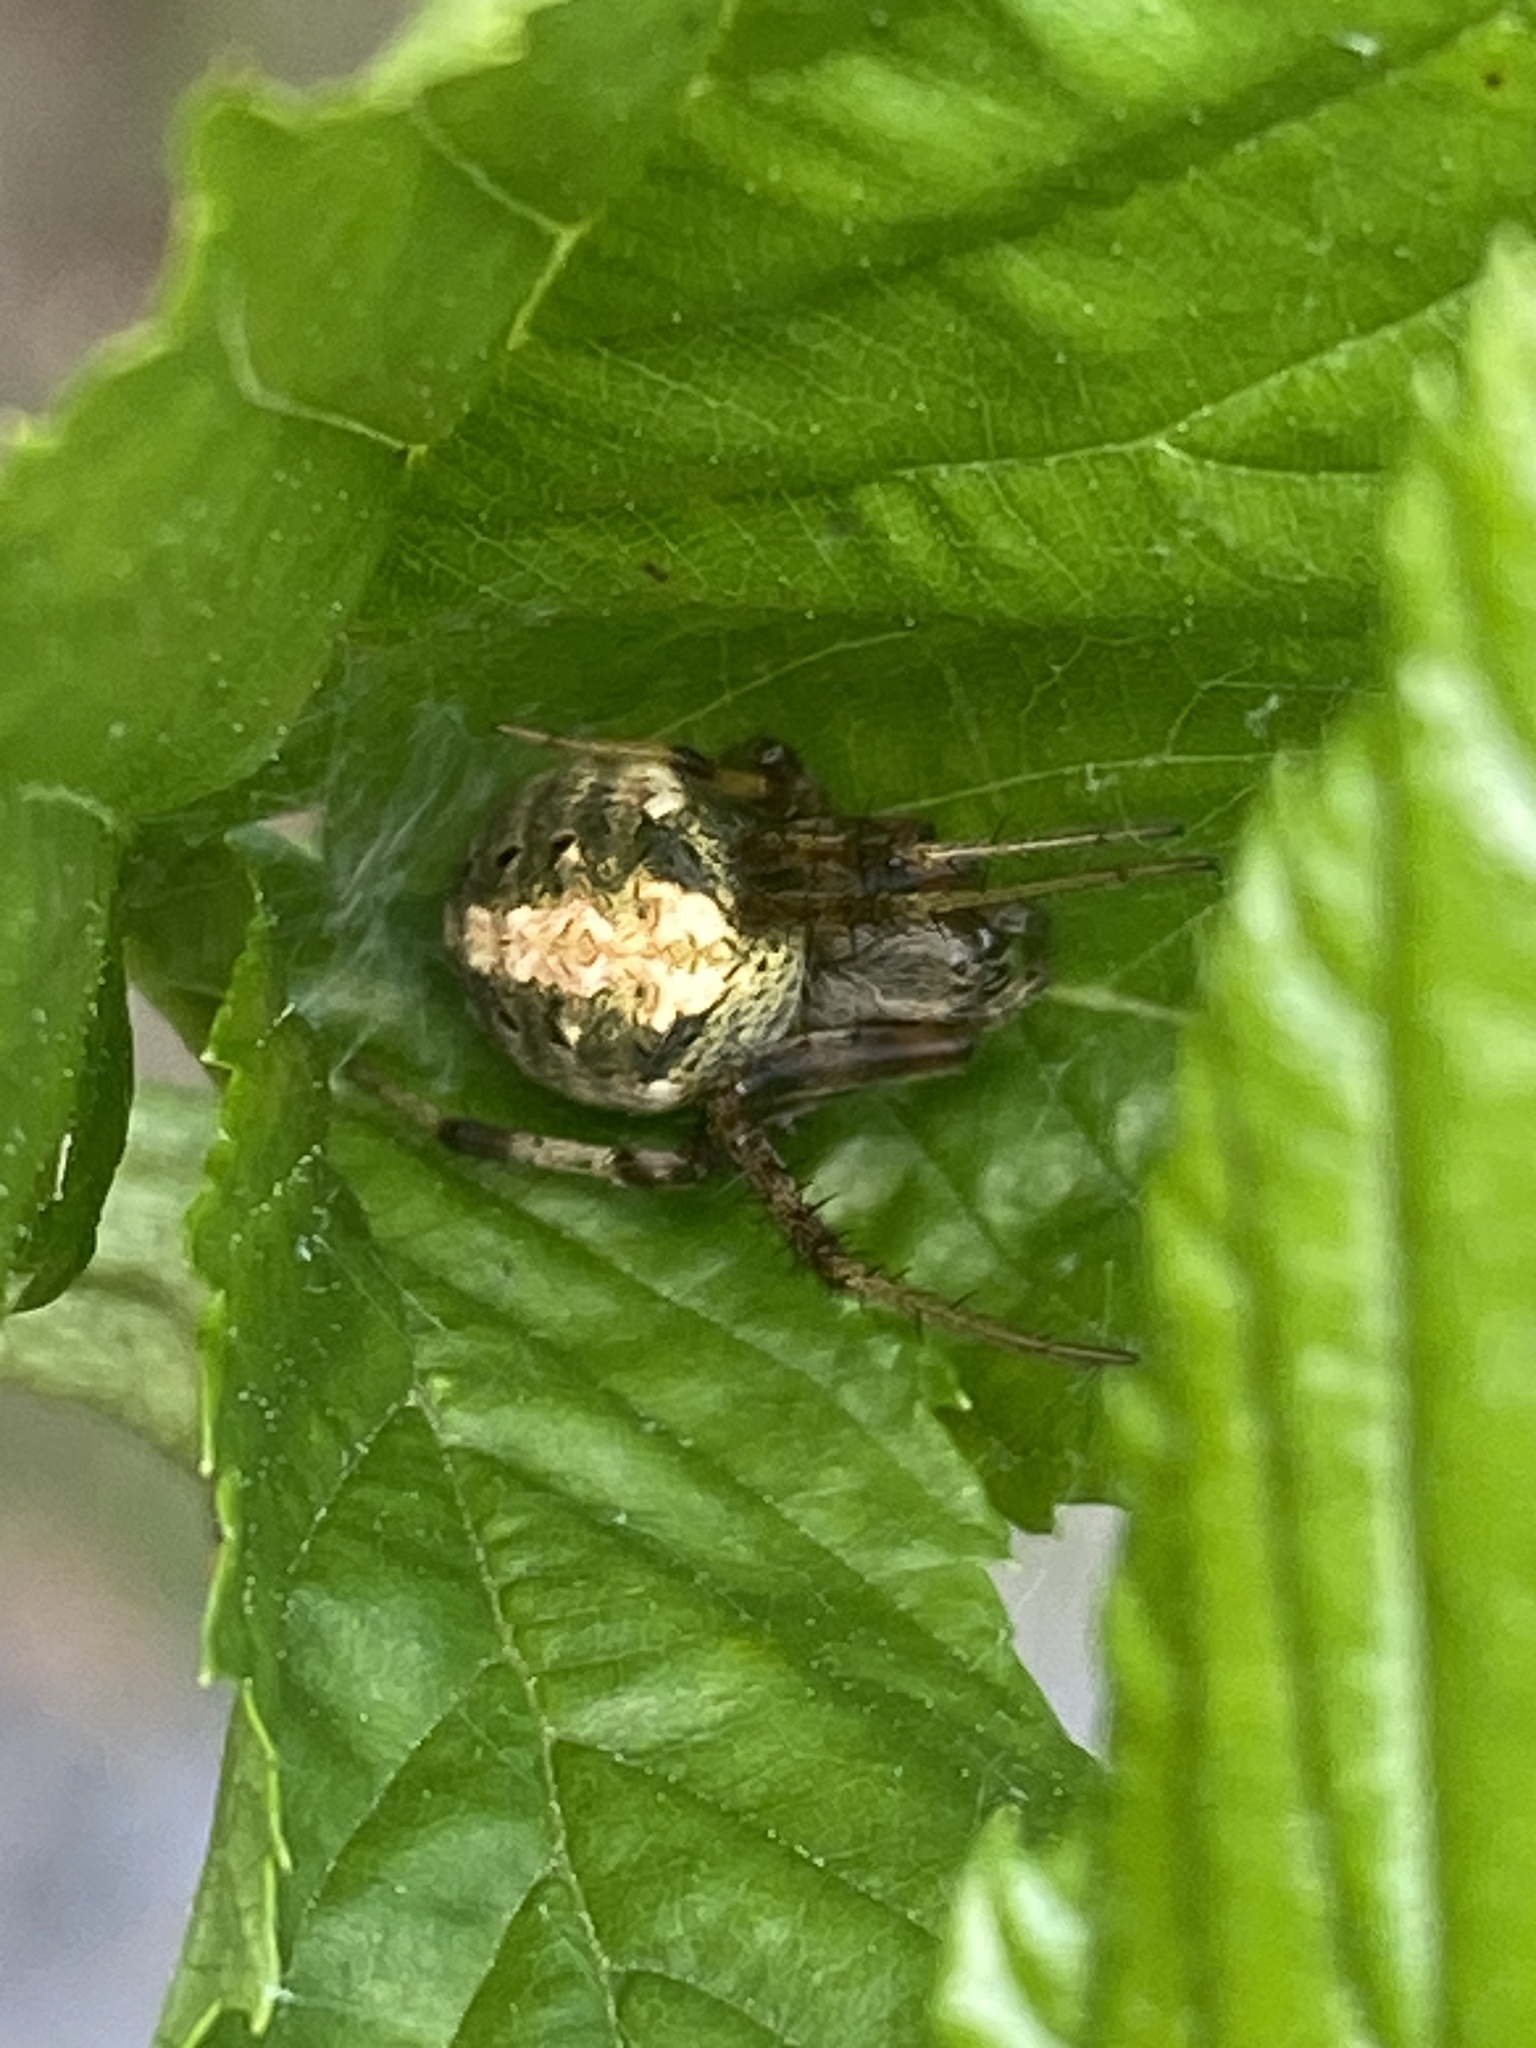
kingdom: Animalia
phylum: Arthropoda
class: Arachnida
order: Araneae
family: Araneidae
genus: Neoscona
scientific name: Neoscona arabesca
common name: Orb weavers
